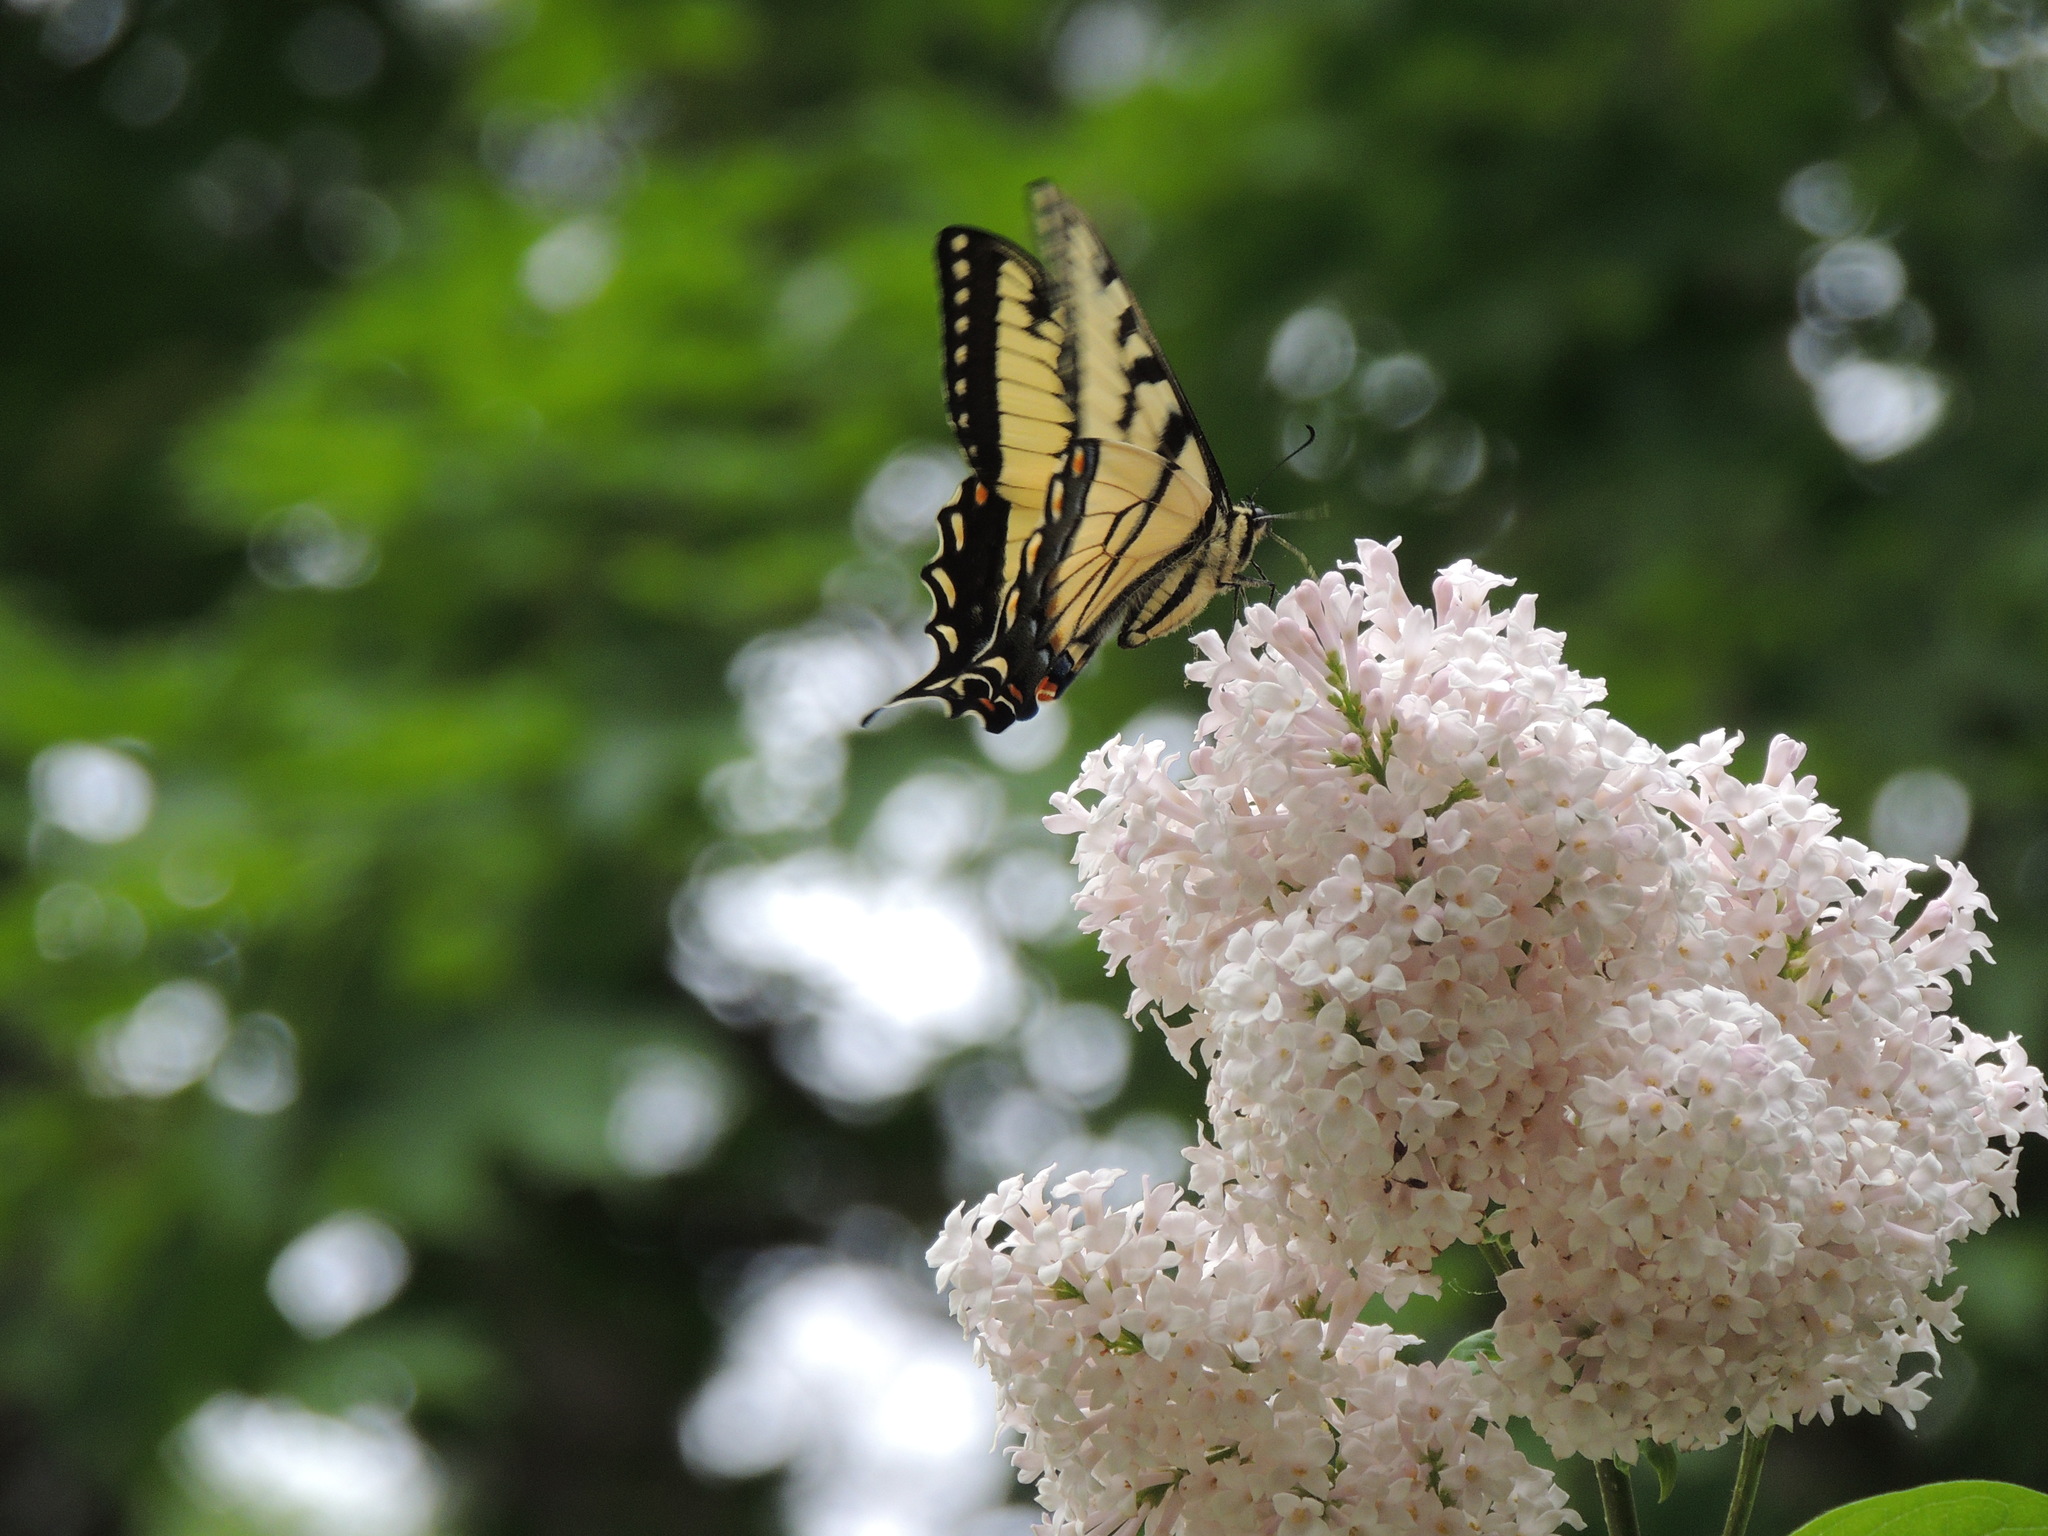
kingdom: Animalia
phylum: Arthropoda
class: Insecta
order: Lepidoptera
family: Papilionidae
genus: Papilio
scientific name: Papilio
